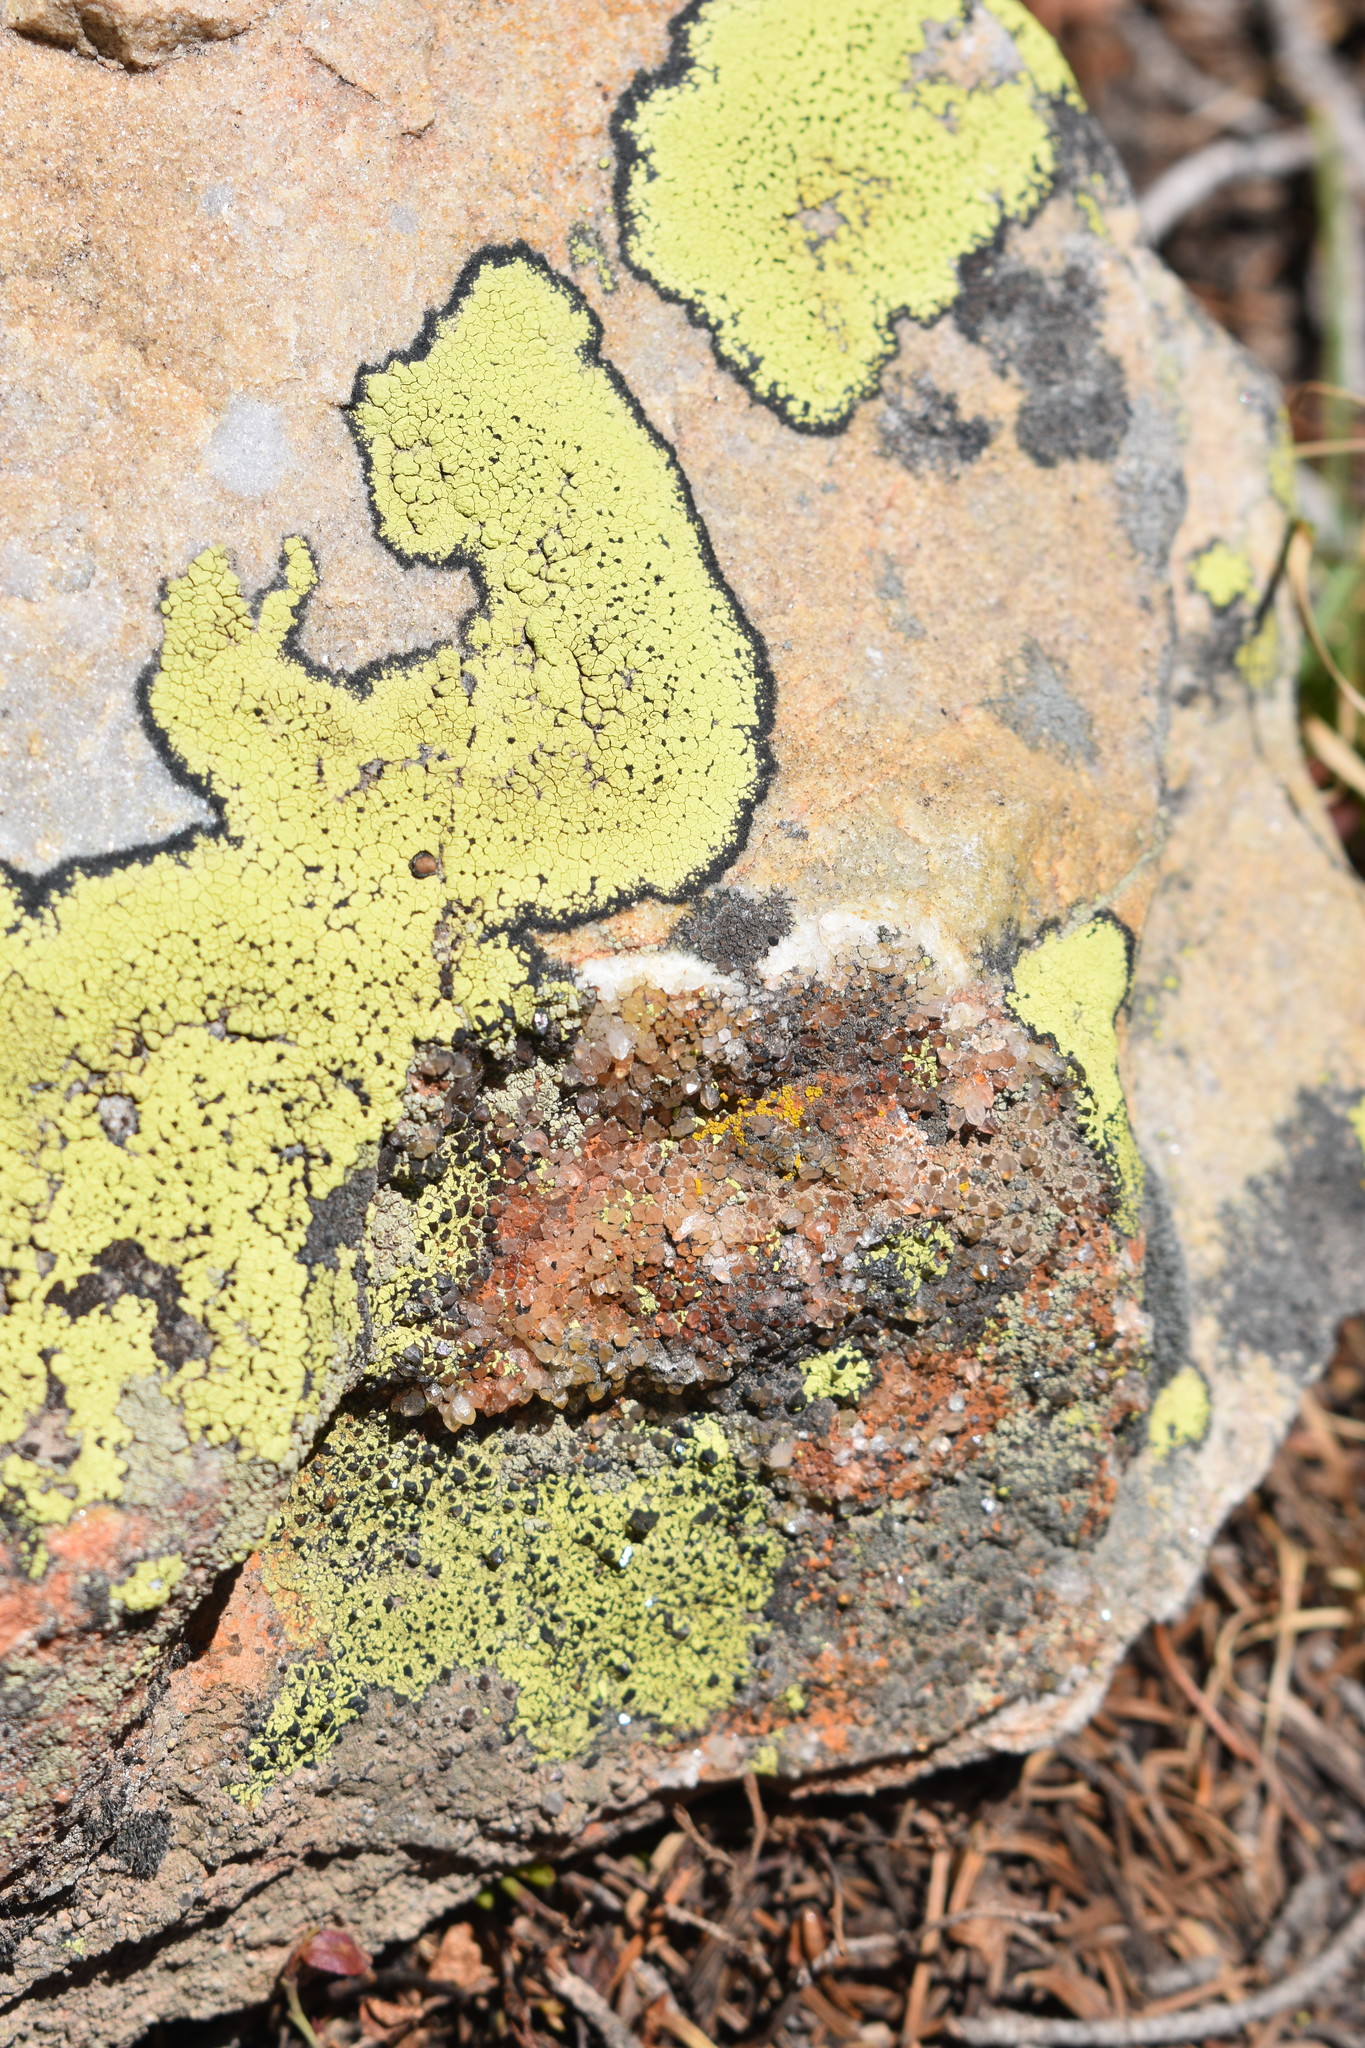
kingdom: Fungi
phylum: Ascomycota
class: Lecanoromycetes
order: Rhizocarpales
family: Rhizocarpaceae
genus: Rhizocarpon
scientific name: Rhizocarpon geographicum
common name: Yellow map lichen
